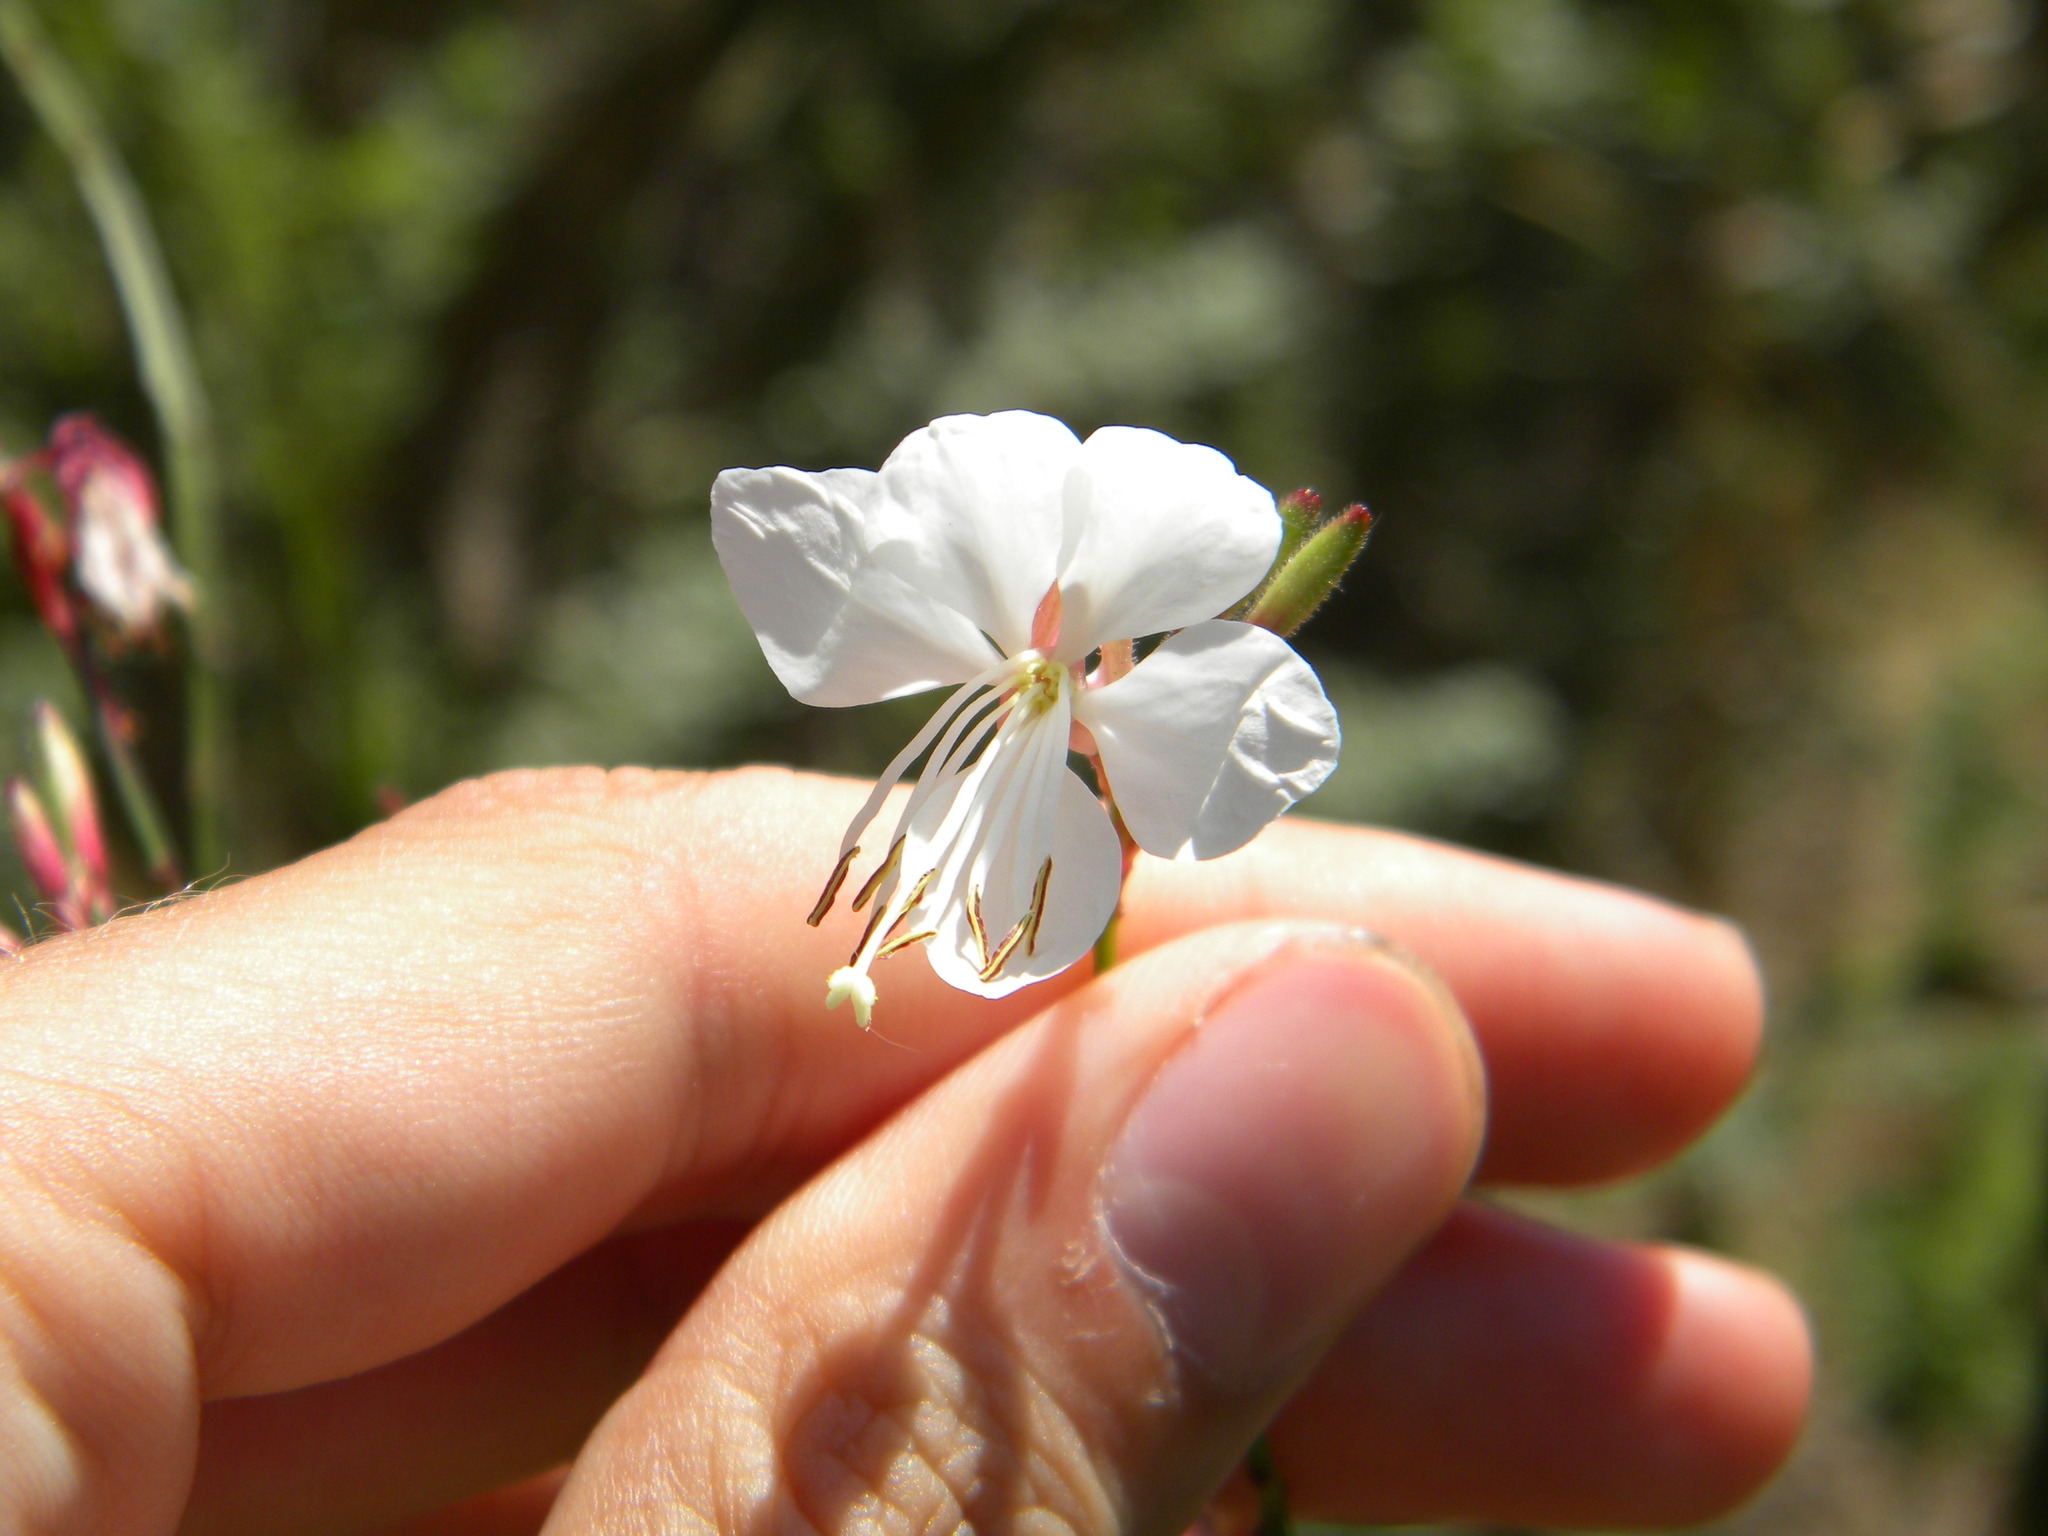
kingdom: Plantae
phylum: Tracheophyta
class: Magnoliopsida
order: Myrtales
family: Onagraceae
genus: Oenothera
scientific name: Oenothera lindheimeri
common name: Lindheimer's beeblossom
